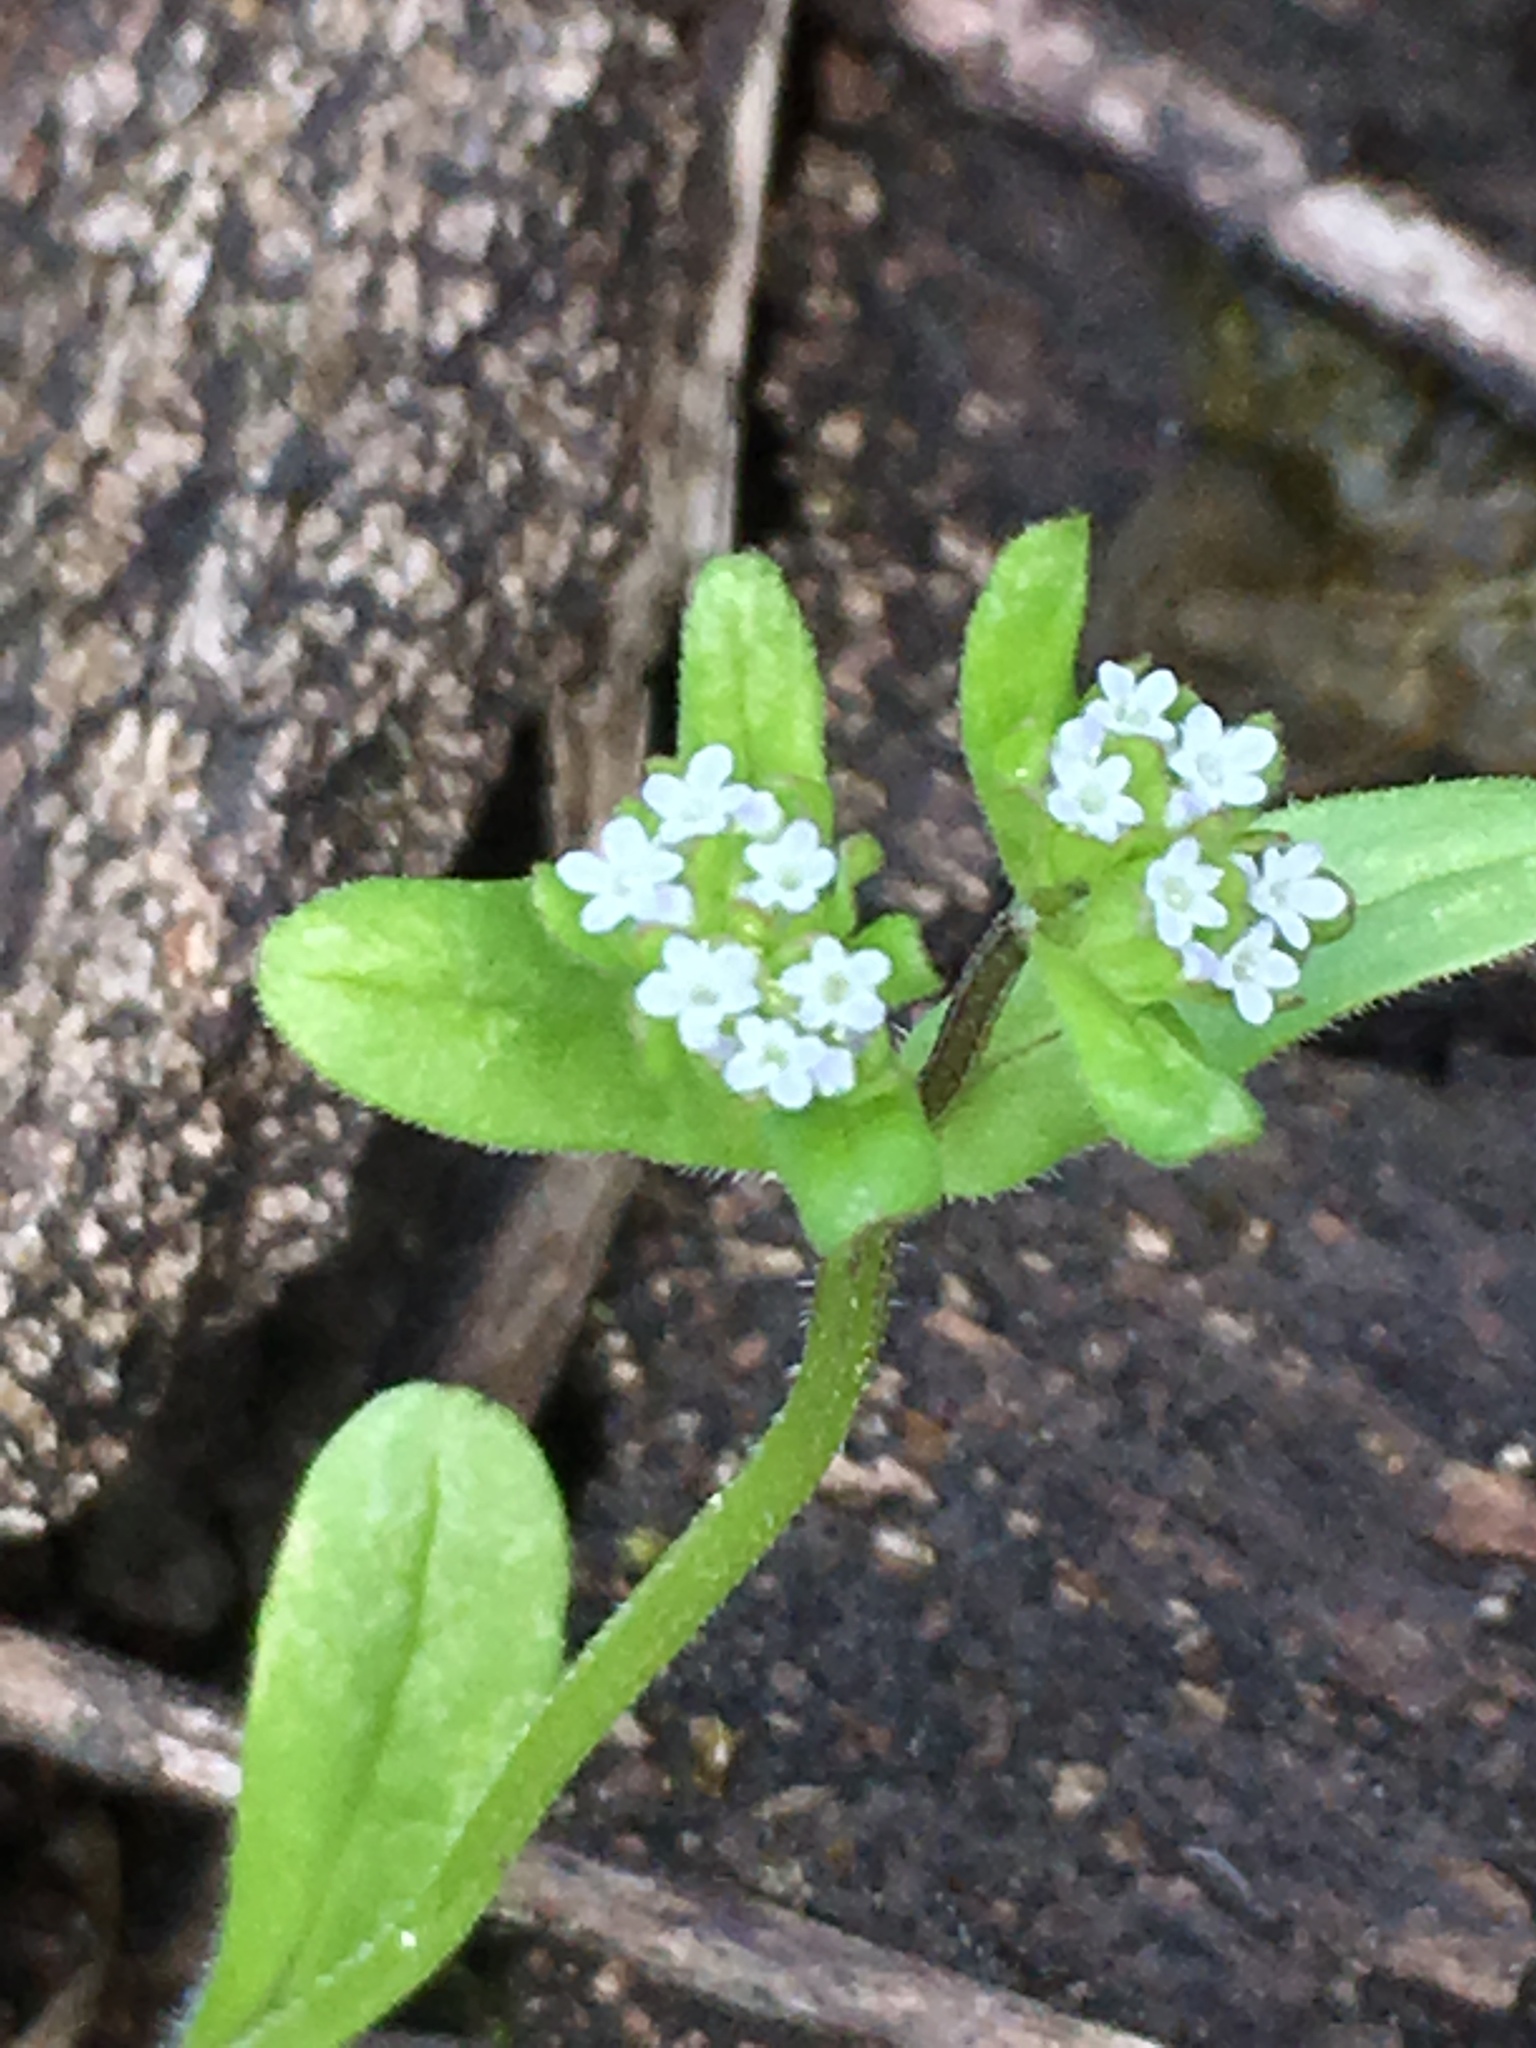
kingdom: Plantae
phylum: Tracheophyta
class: Magnoliopsida
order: Dipsacales
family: Caprifoliaceae
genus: Valerianella
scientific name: Valerianella locusta
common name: Common cornsalad
